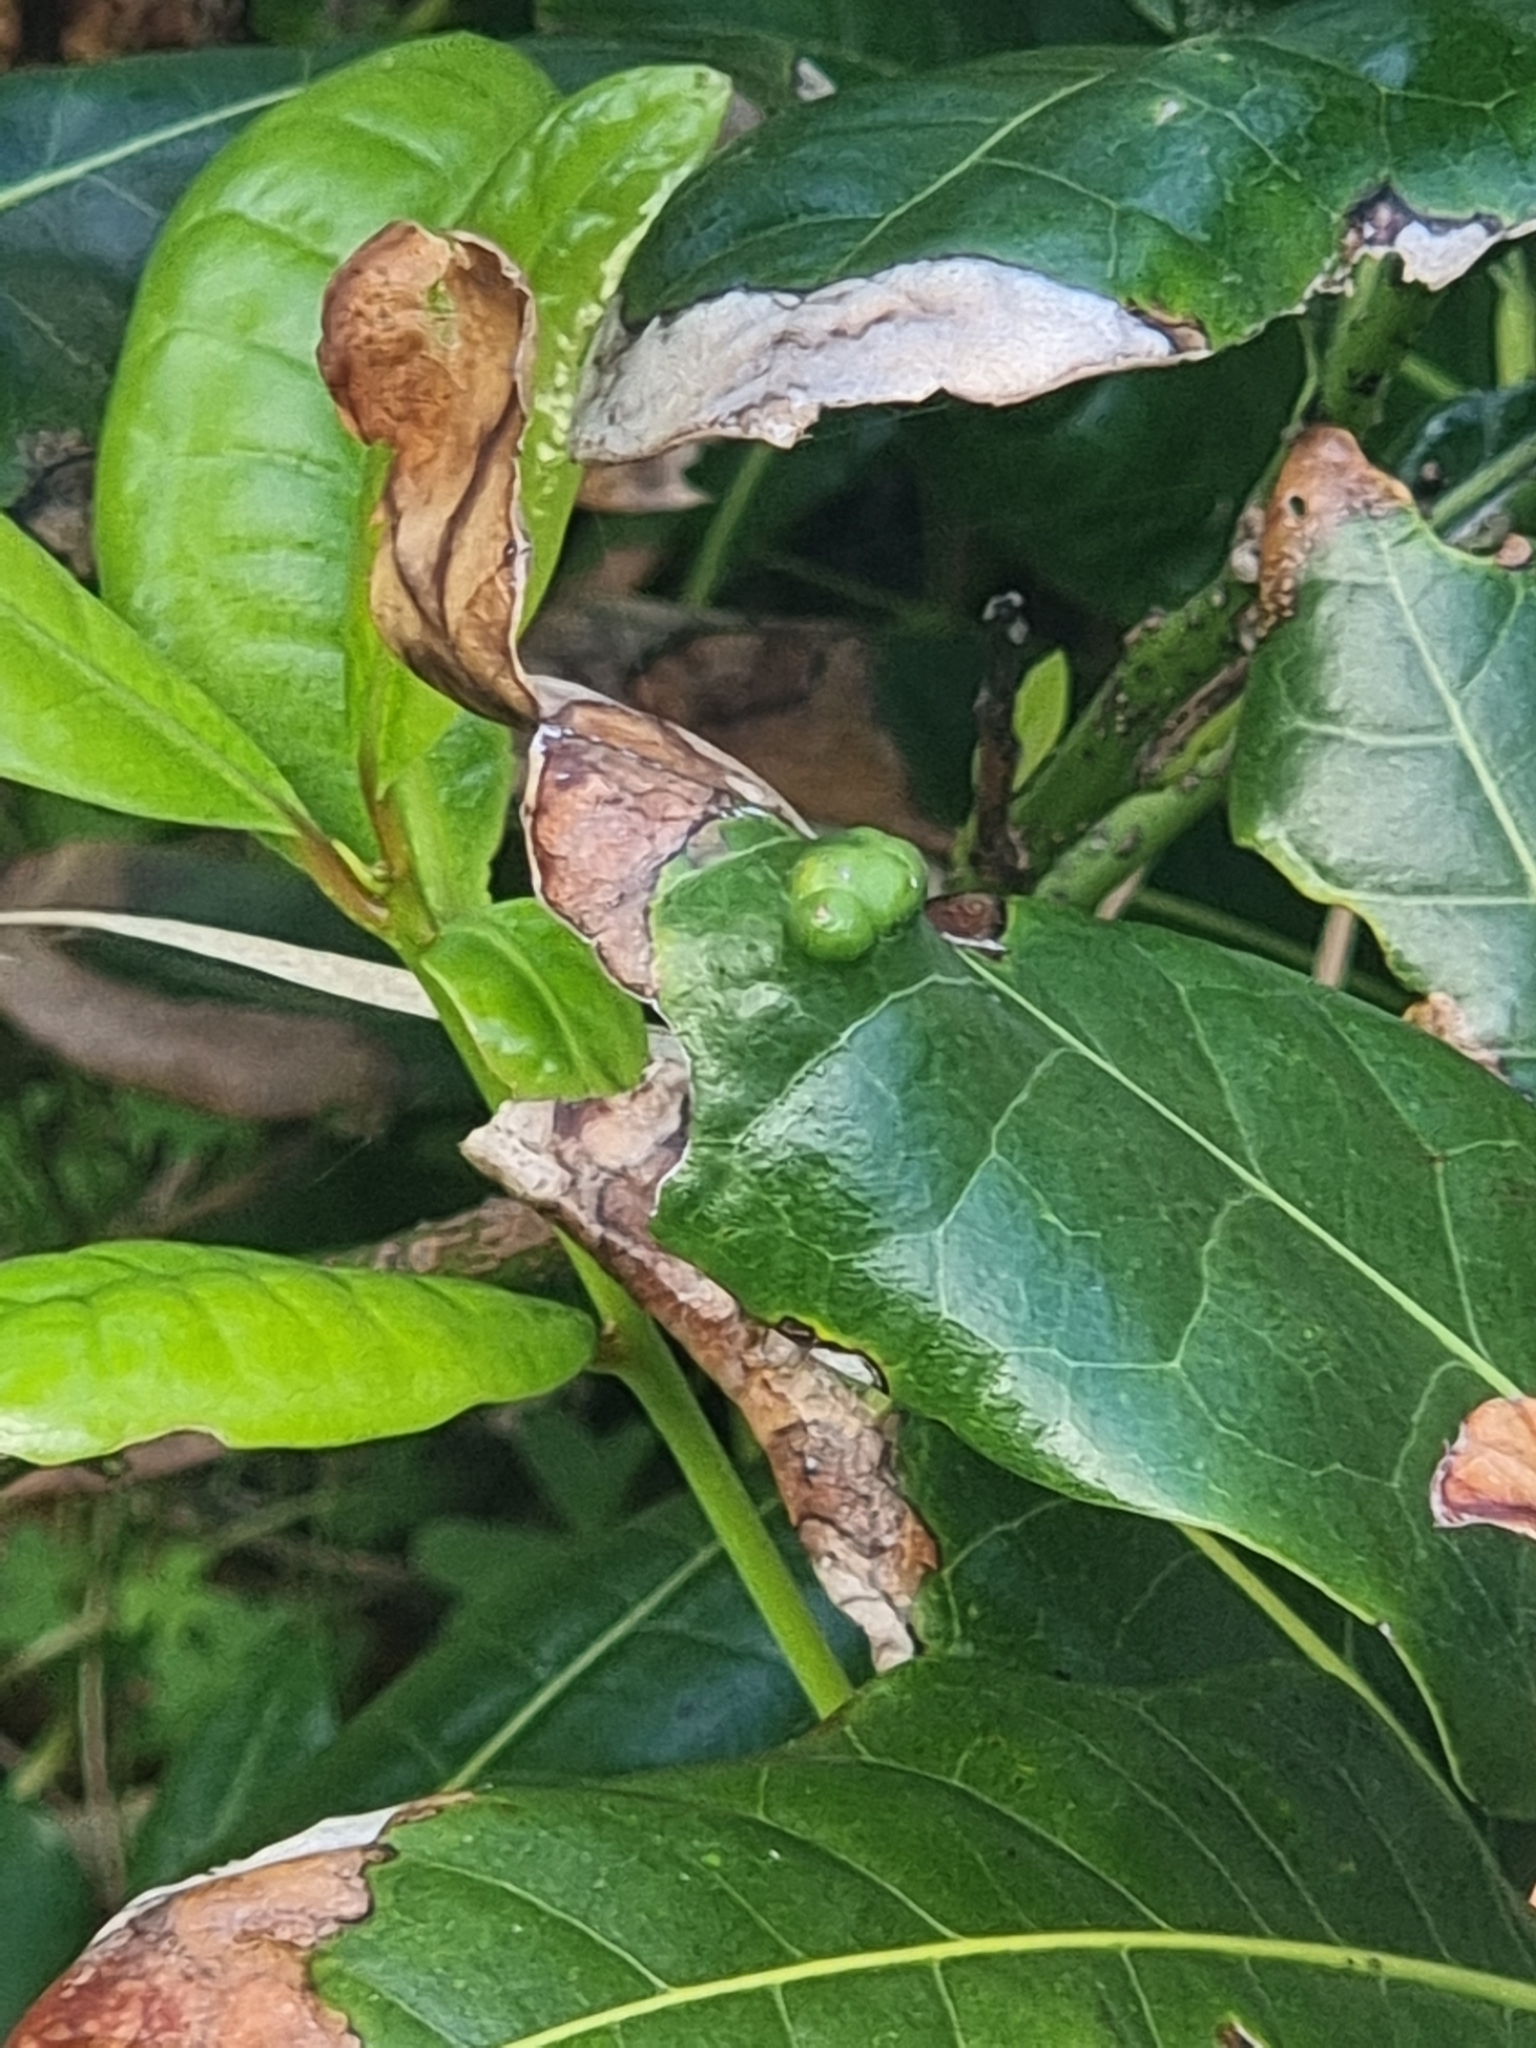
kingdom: Plantae
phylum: Tracheophyta
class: Magnoliopsida
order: Laurales
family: Lauraceae
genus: Apollonias
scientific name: Apollonias barbujana
